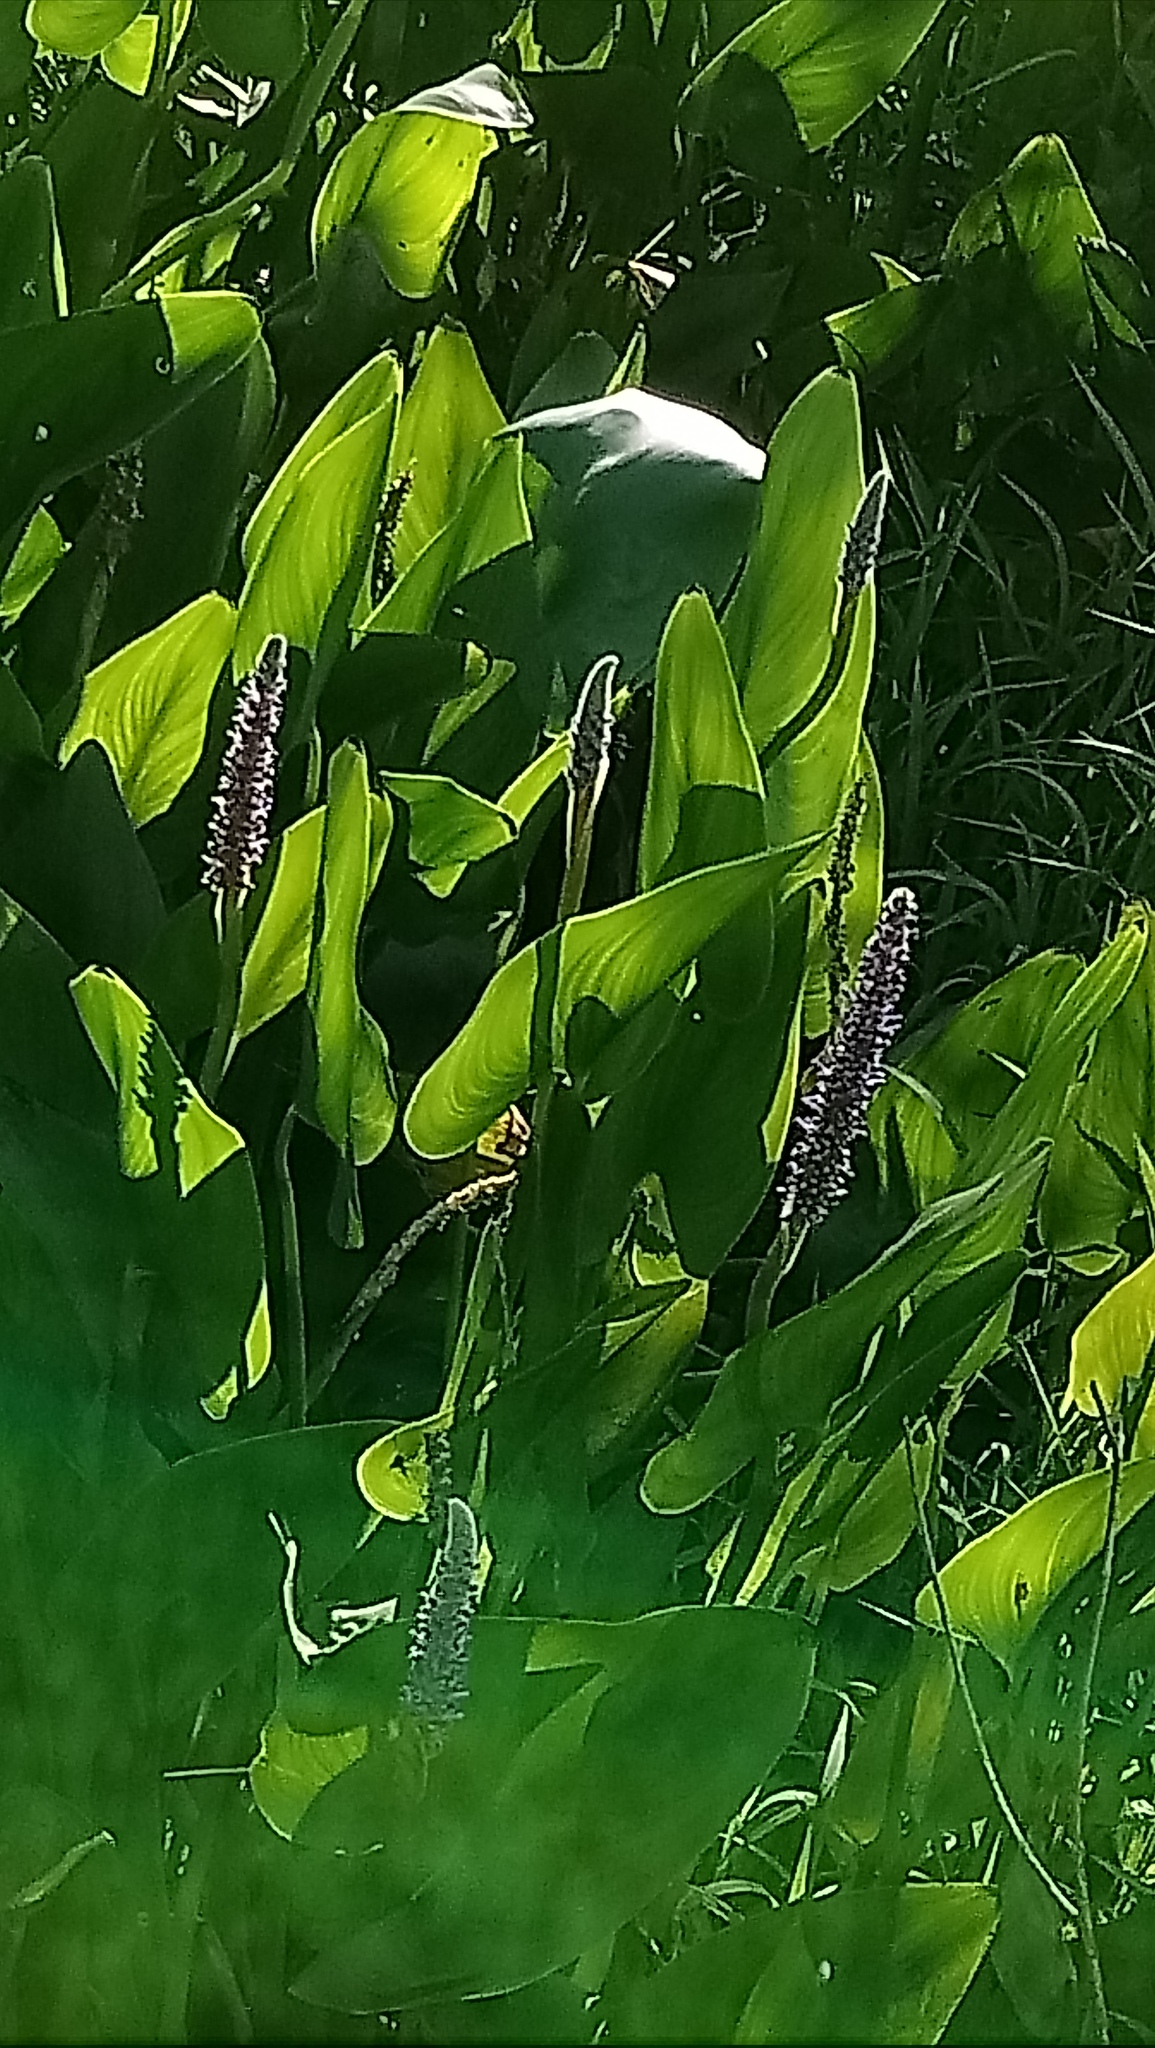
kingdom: Plantae
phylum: Tracheophyta
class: Liliopsida
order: Commelinales
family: Pontederiaceae
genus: Pontederia
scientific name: Pontederia cordata
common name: Pickerelweed
